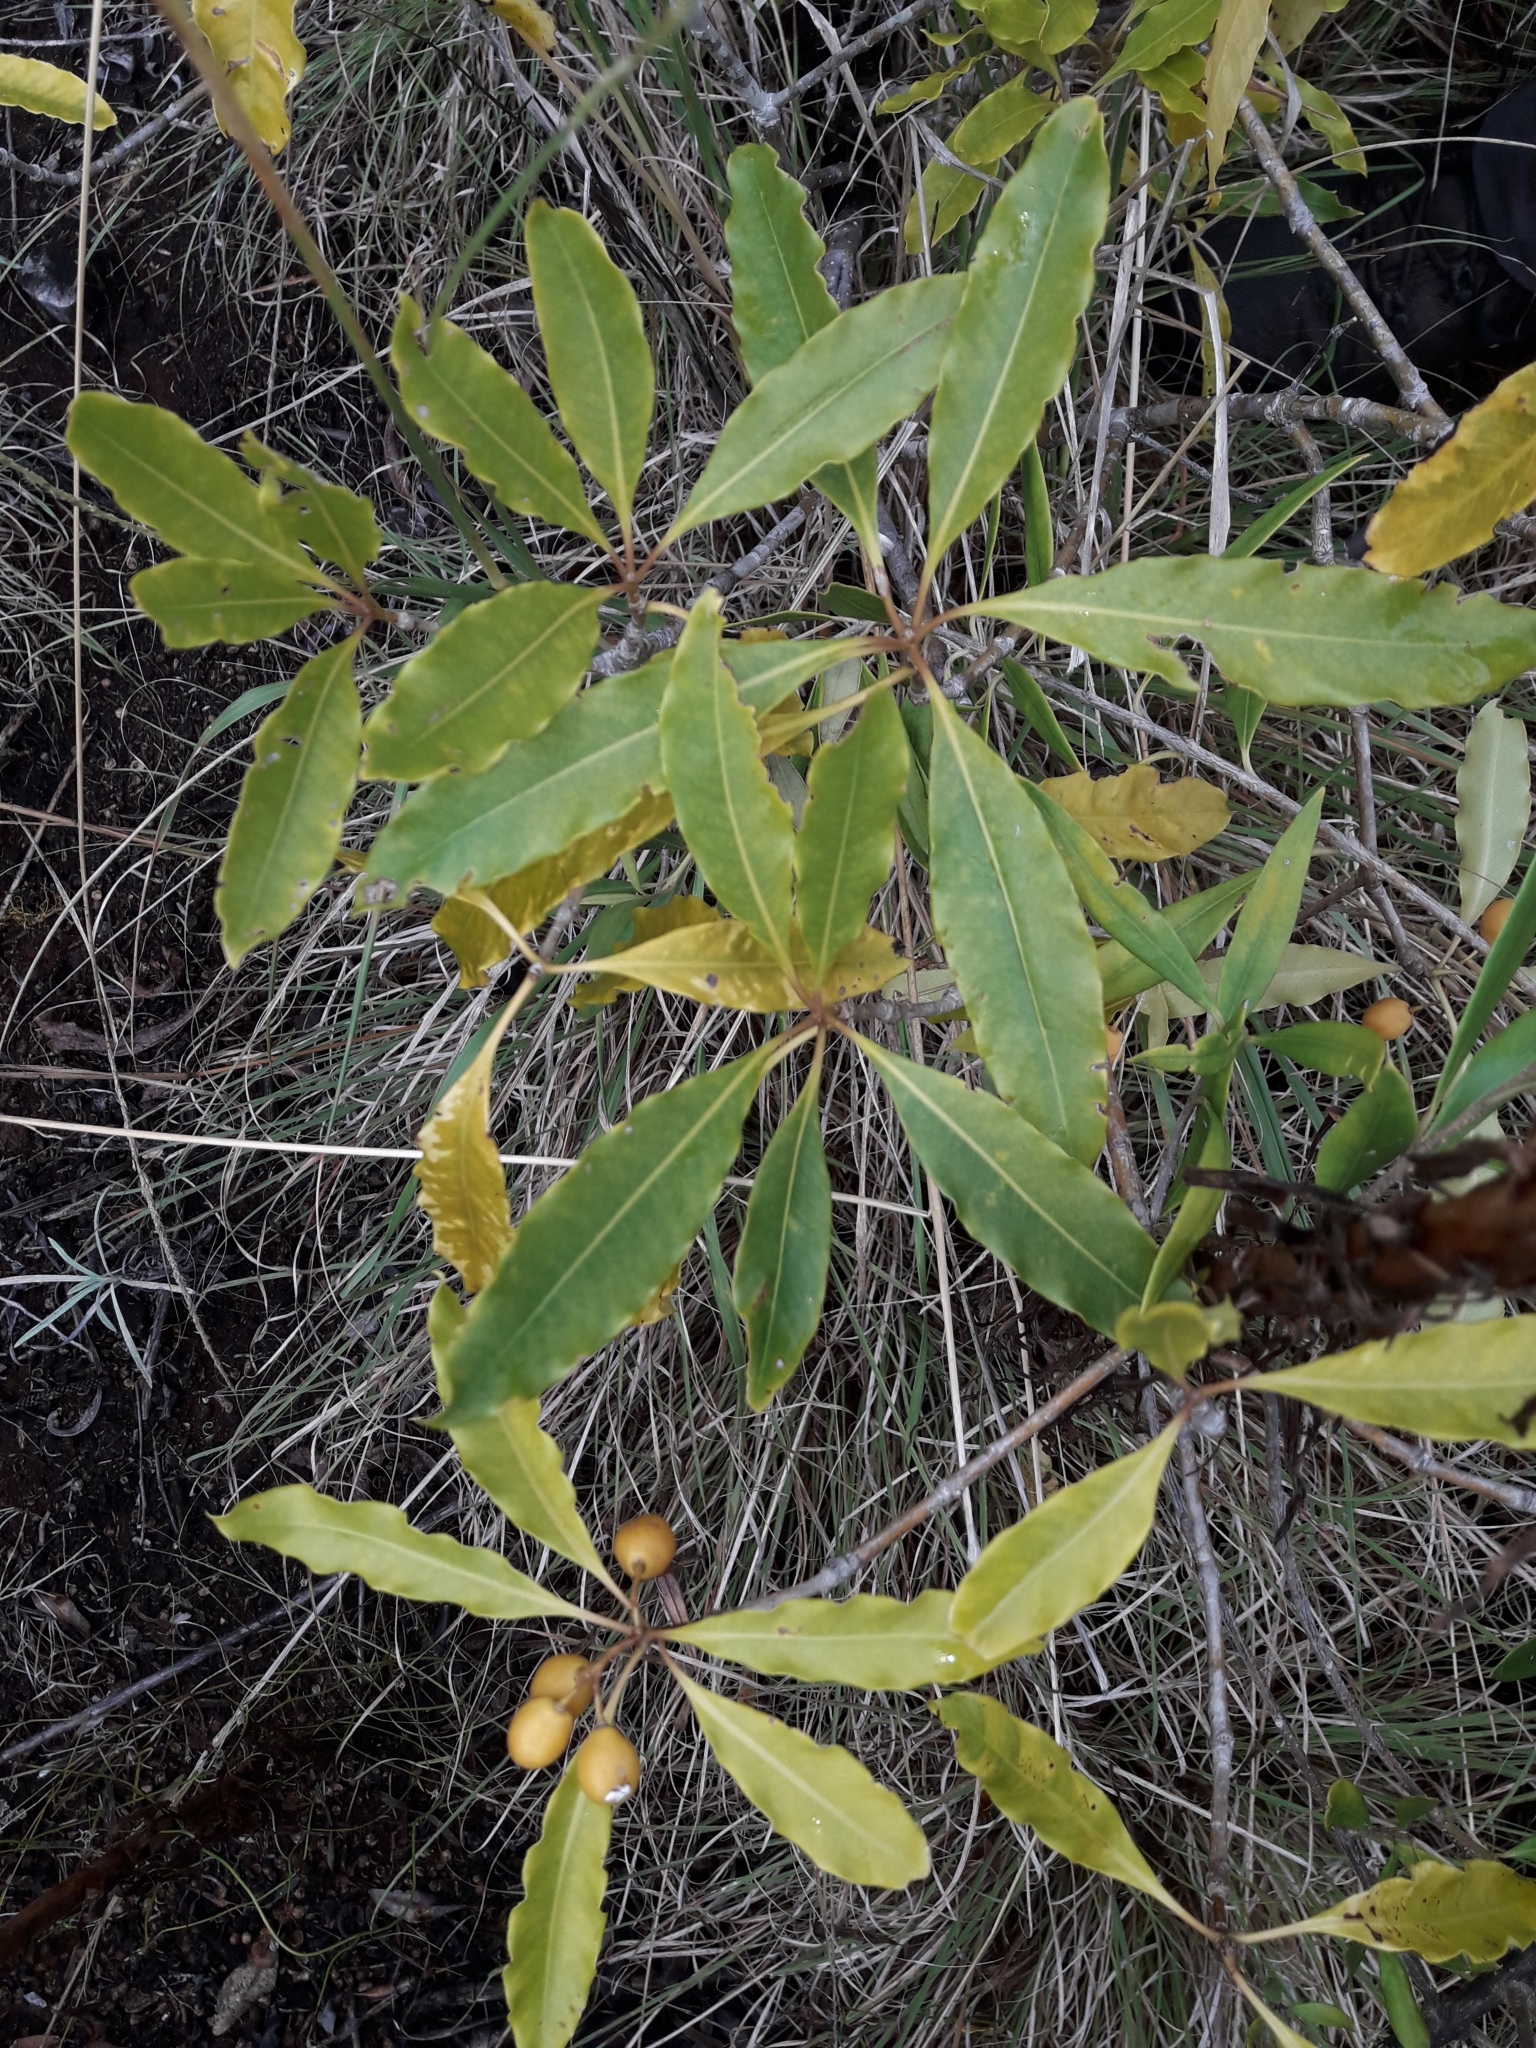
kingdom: Plantae
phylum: Tracheophyta
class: Magnoliopsida
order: Apiales
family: Pittosporaceae
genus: Pittosporum
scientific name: Pittosporum undulatum
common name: Australian cheesewood
